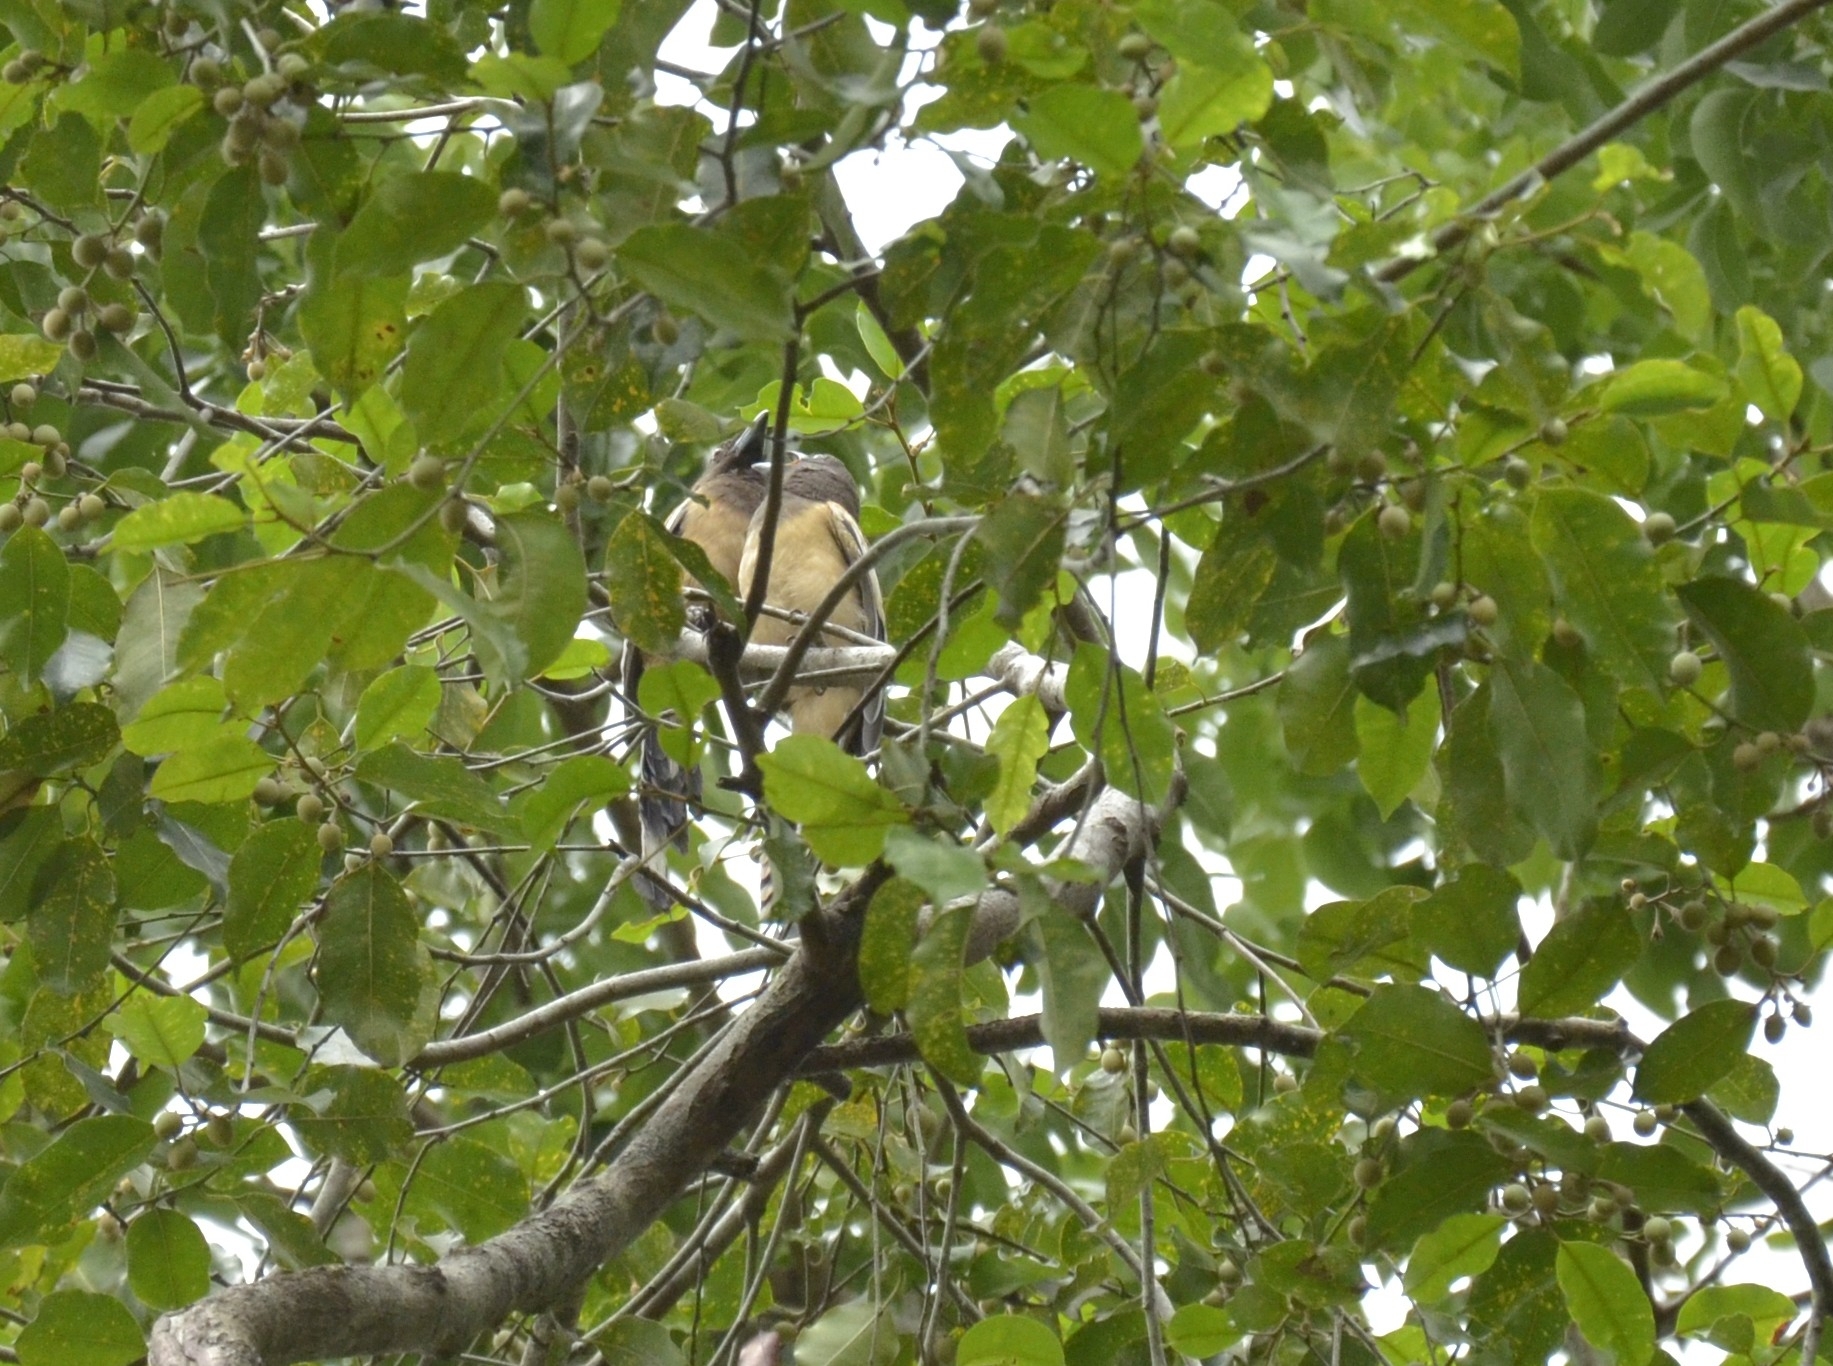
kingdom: Animalia
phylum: Chordata
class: Aves
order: Passeriformes
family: Corvidae
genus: Dendrocitta
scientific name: Dendrocitta vagabunda
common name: Rufous treepie
